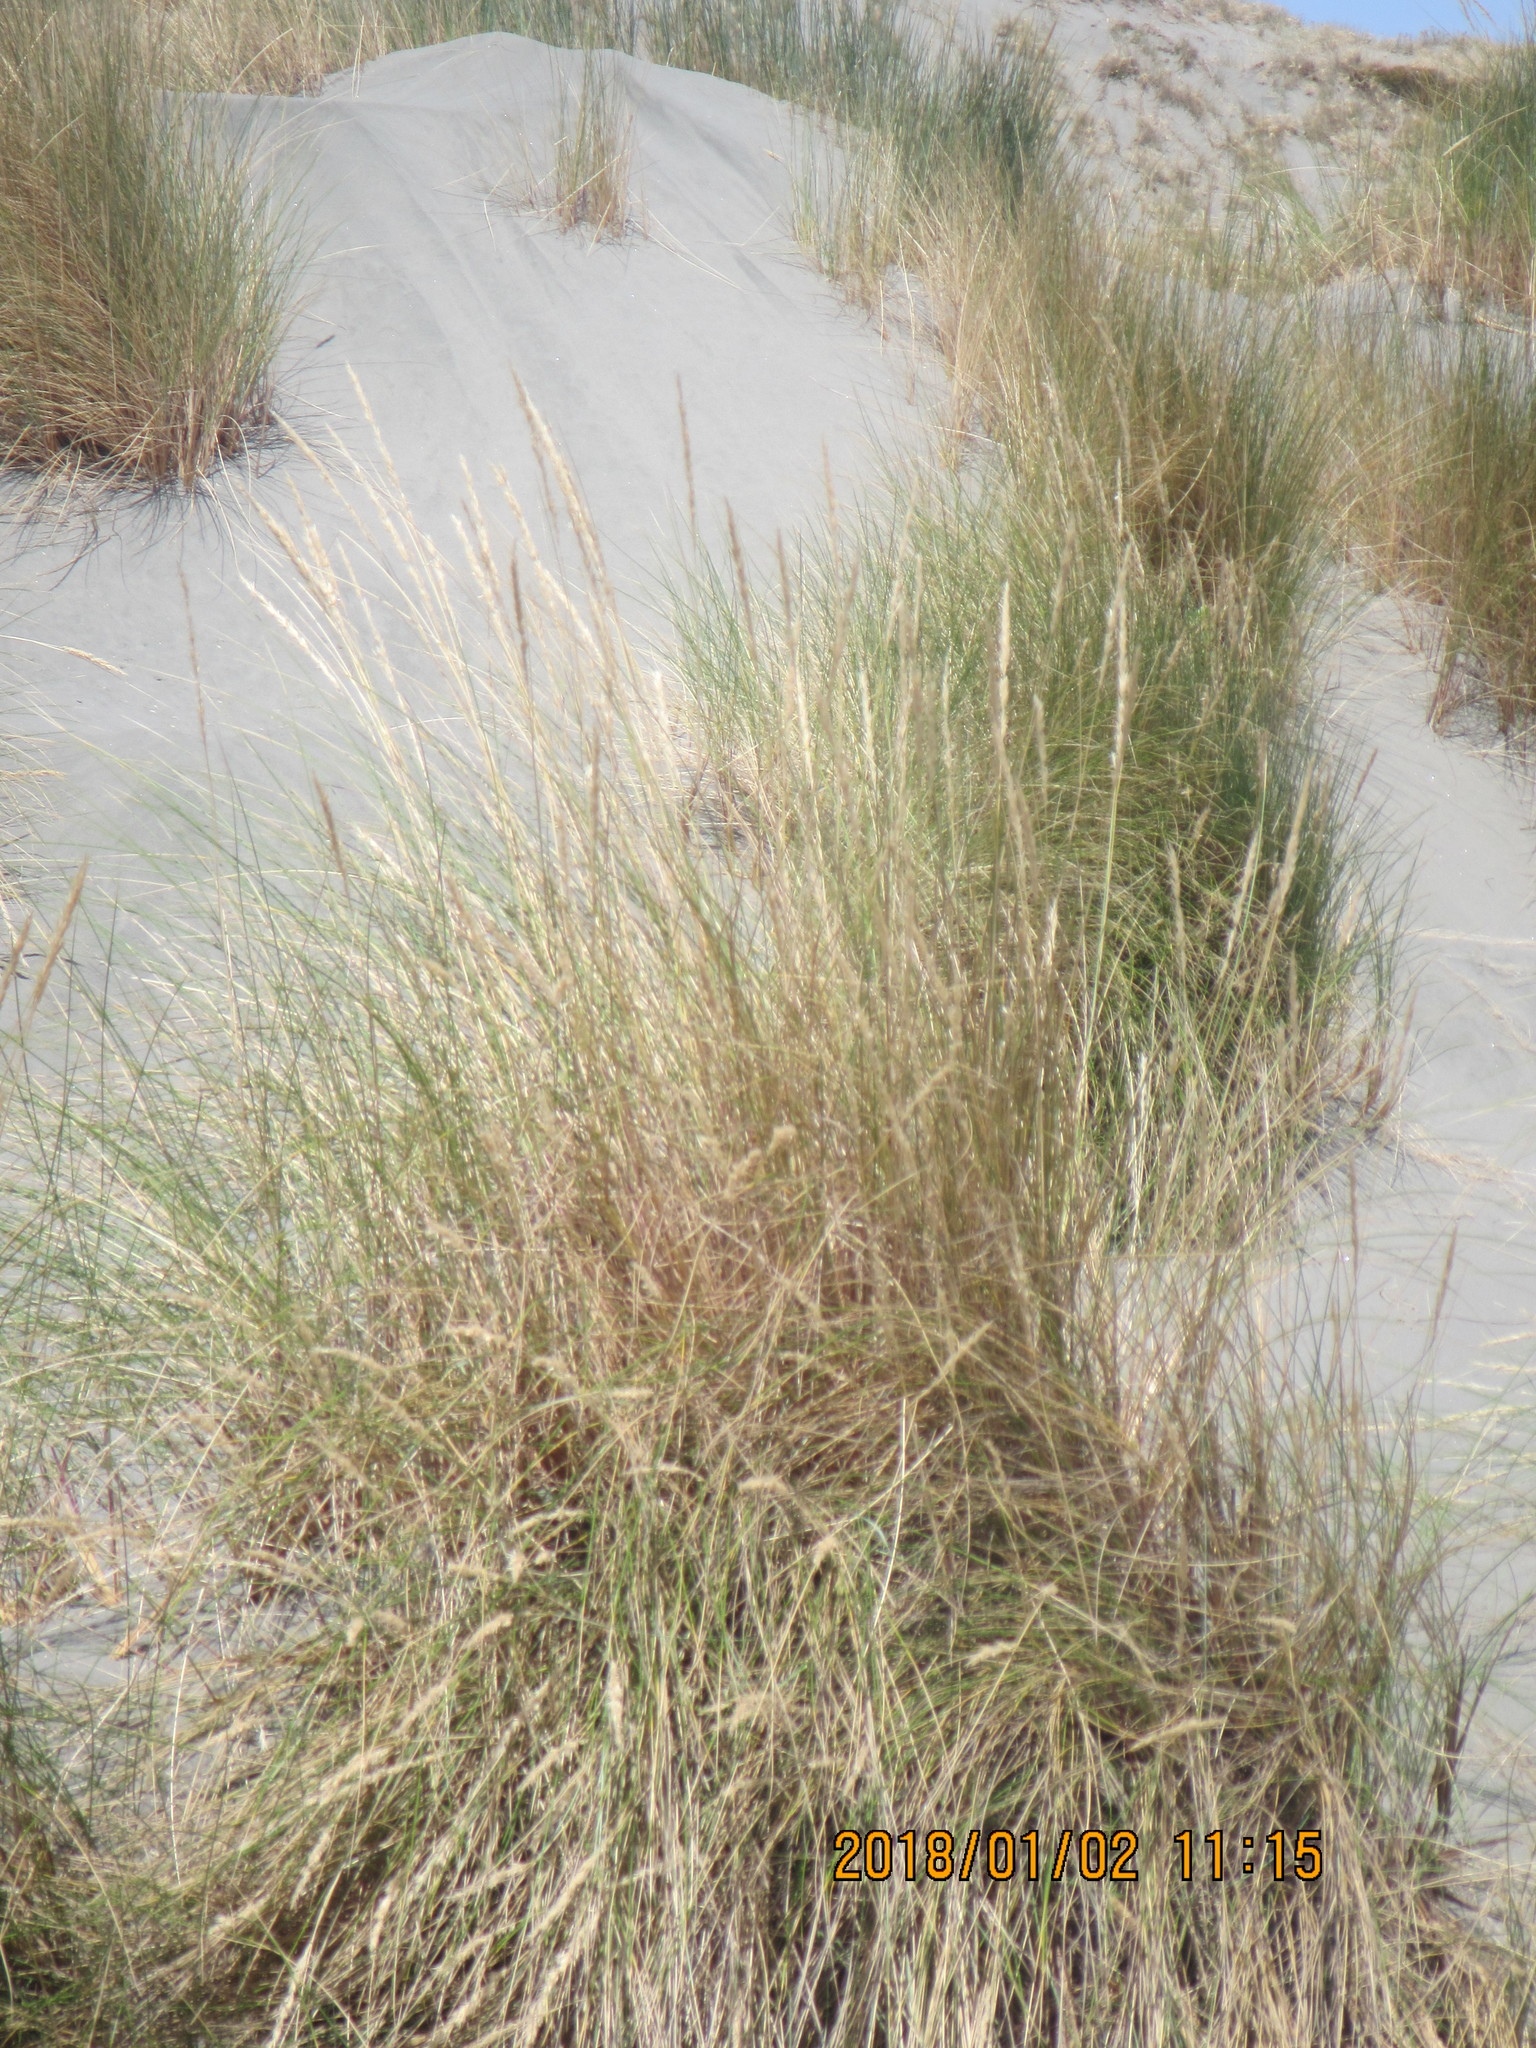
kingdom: Plantae
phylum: Tracheophyta
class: Liliopsida
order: Poales
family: Poaceae
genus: Calamagrostis
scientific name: Calamagrostis arenaria
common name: European beachgrass
